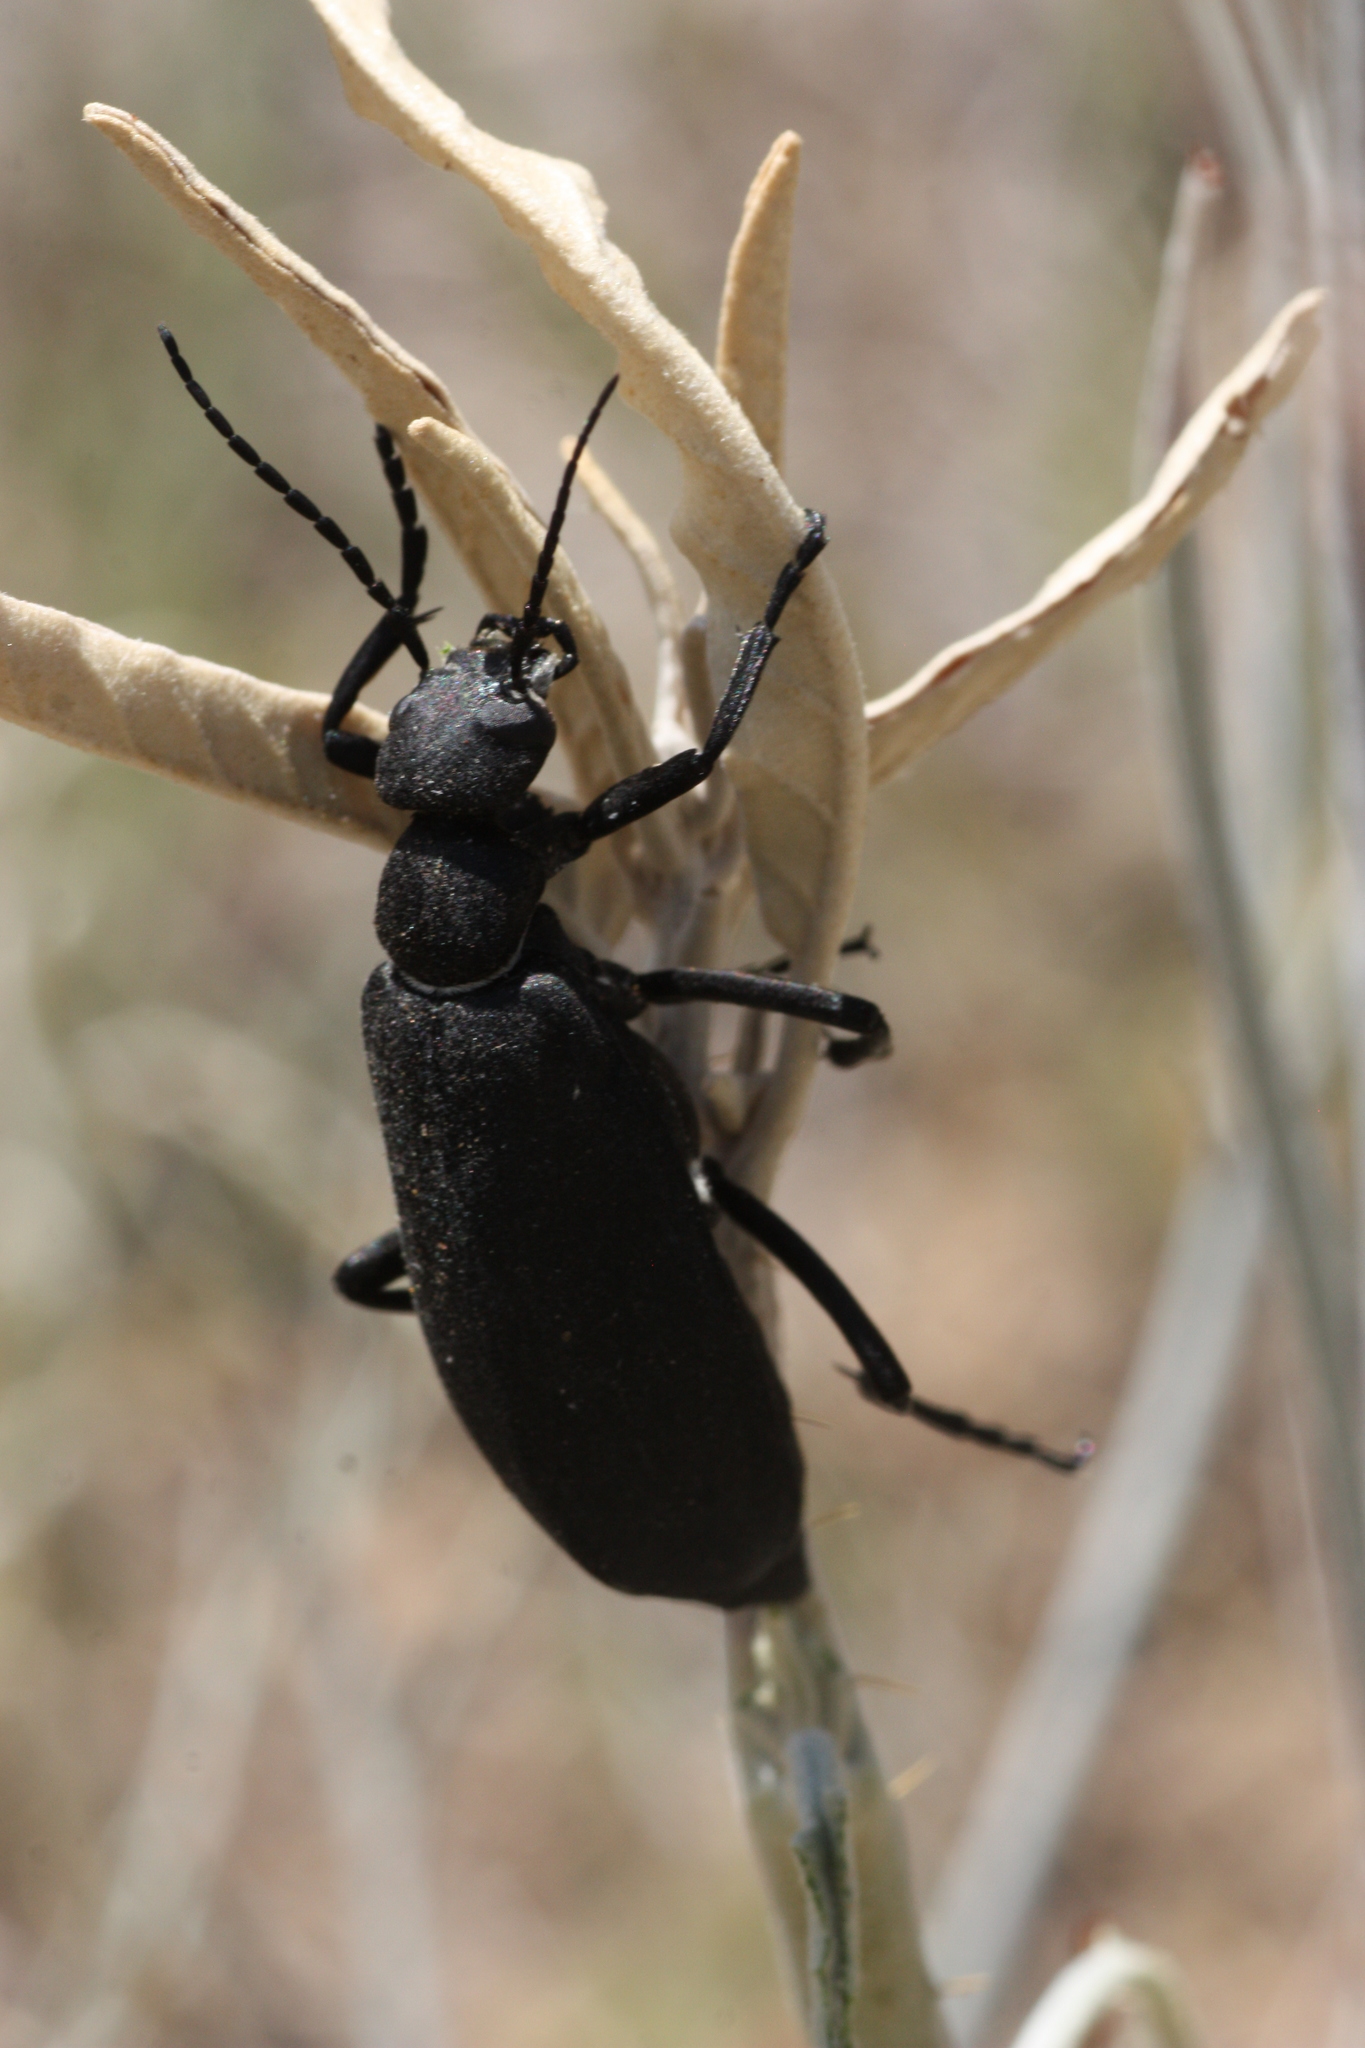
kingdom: Animalia
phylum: Arthropoda
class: Insecta
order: Coleoptera
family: Meloidae
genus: Epicauta
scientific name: Epicauta segmenta
